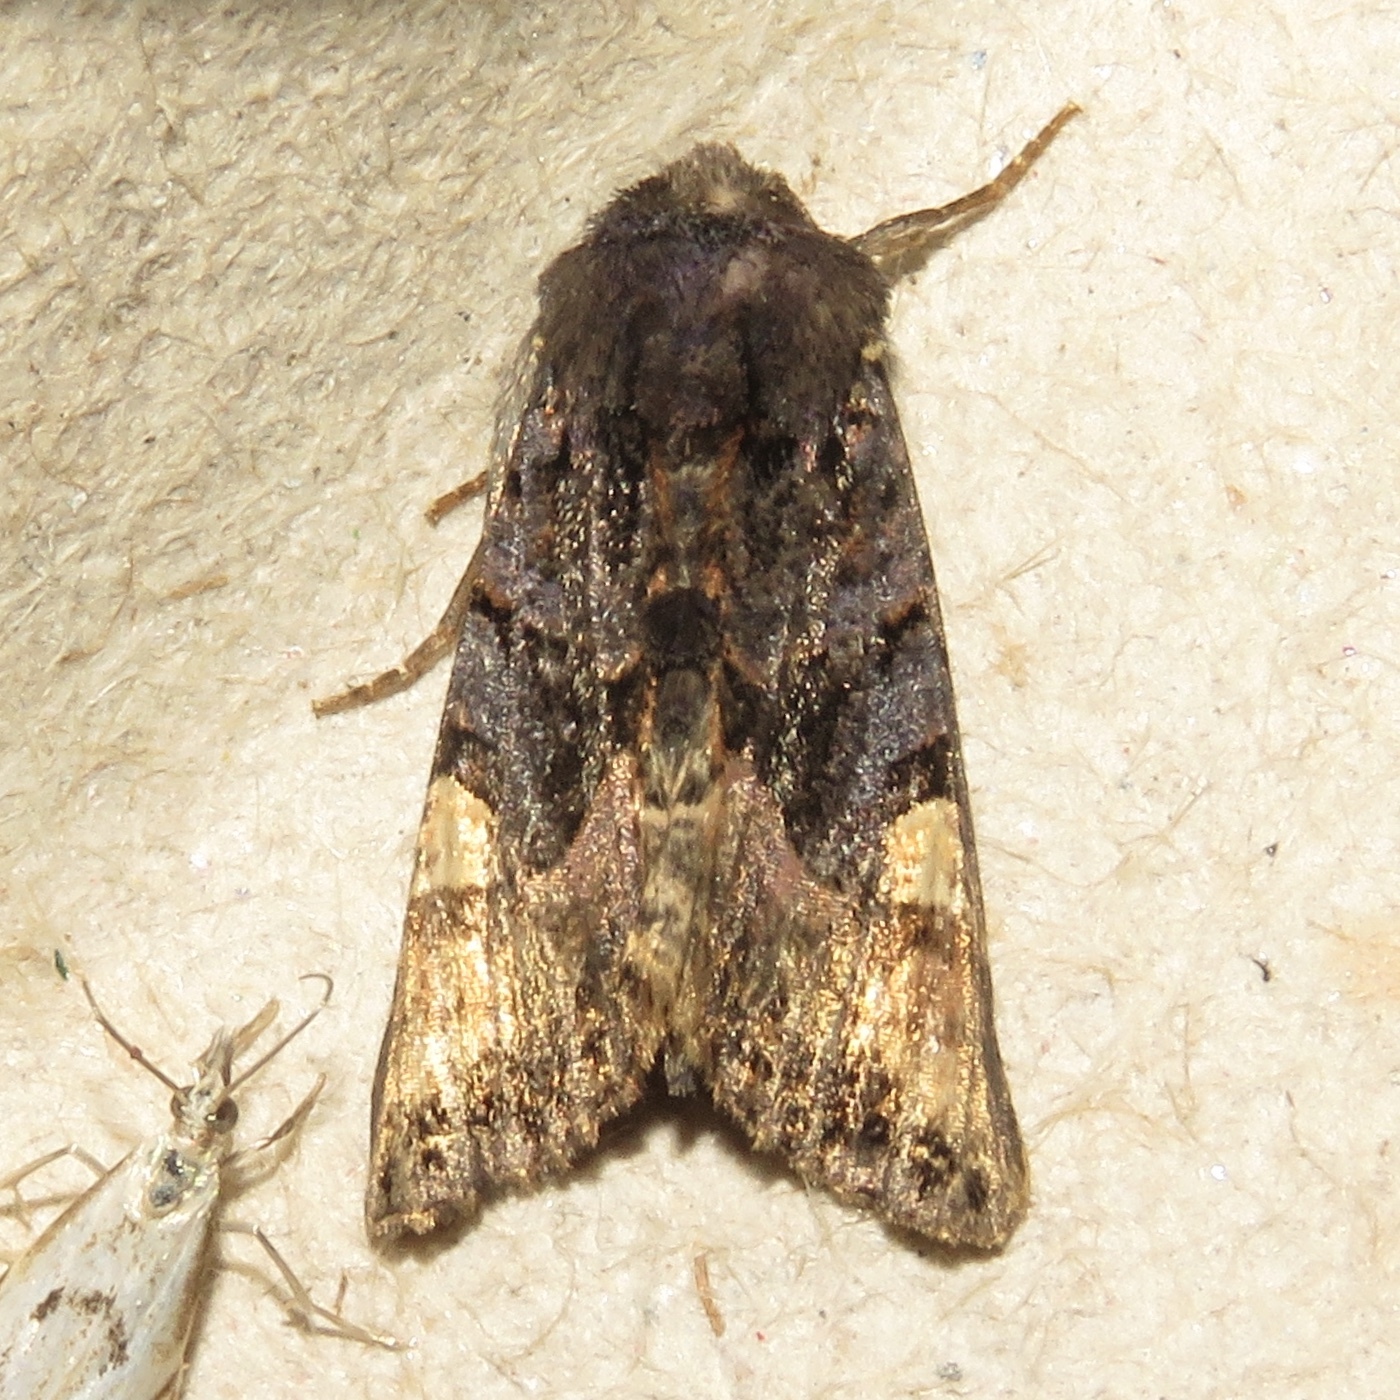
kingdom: Animalia
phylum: Arthropoda
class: Insecta
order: Lepidoptera
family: Noctuidae
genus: Euplexia
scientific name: Euplexia benesimilis
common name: American angle shades
